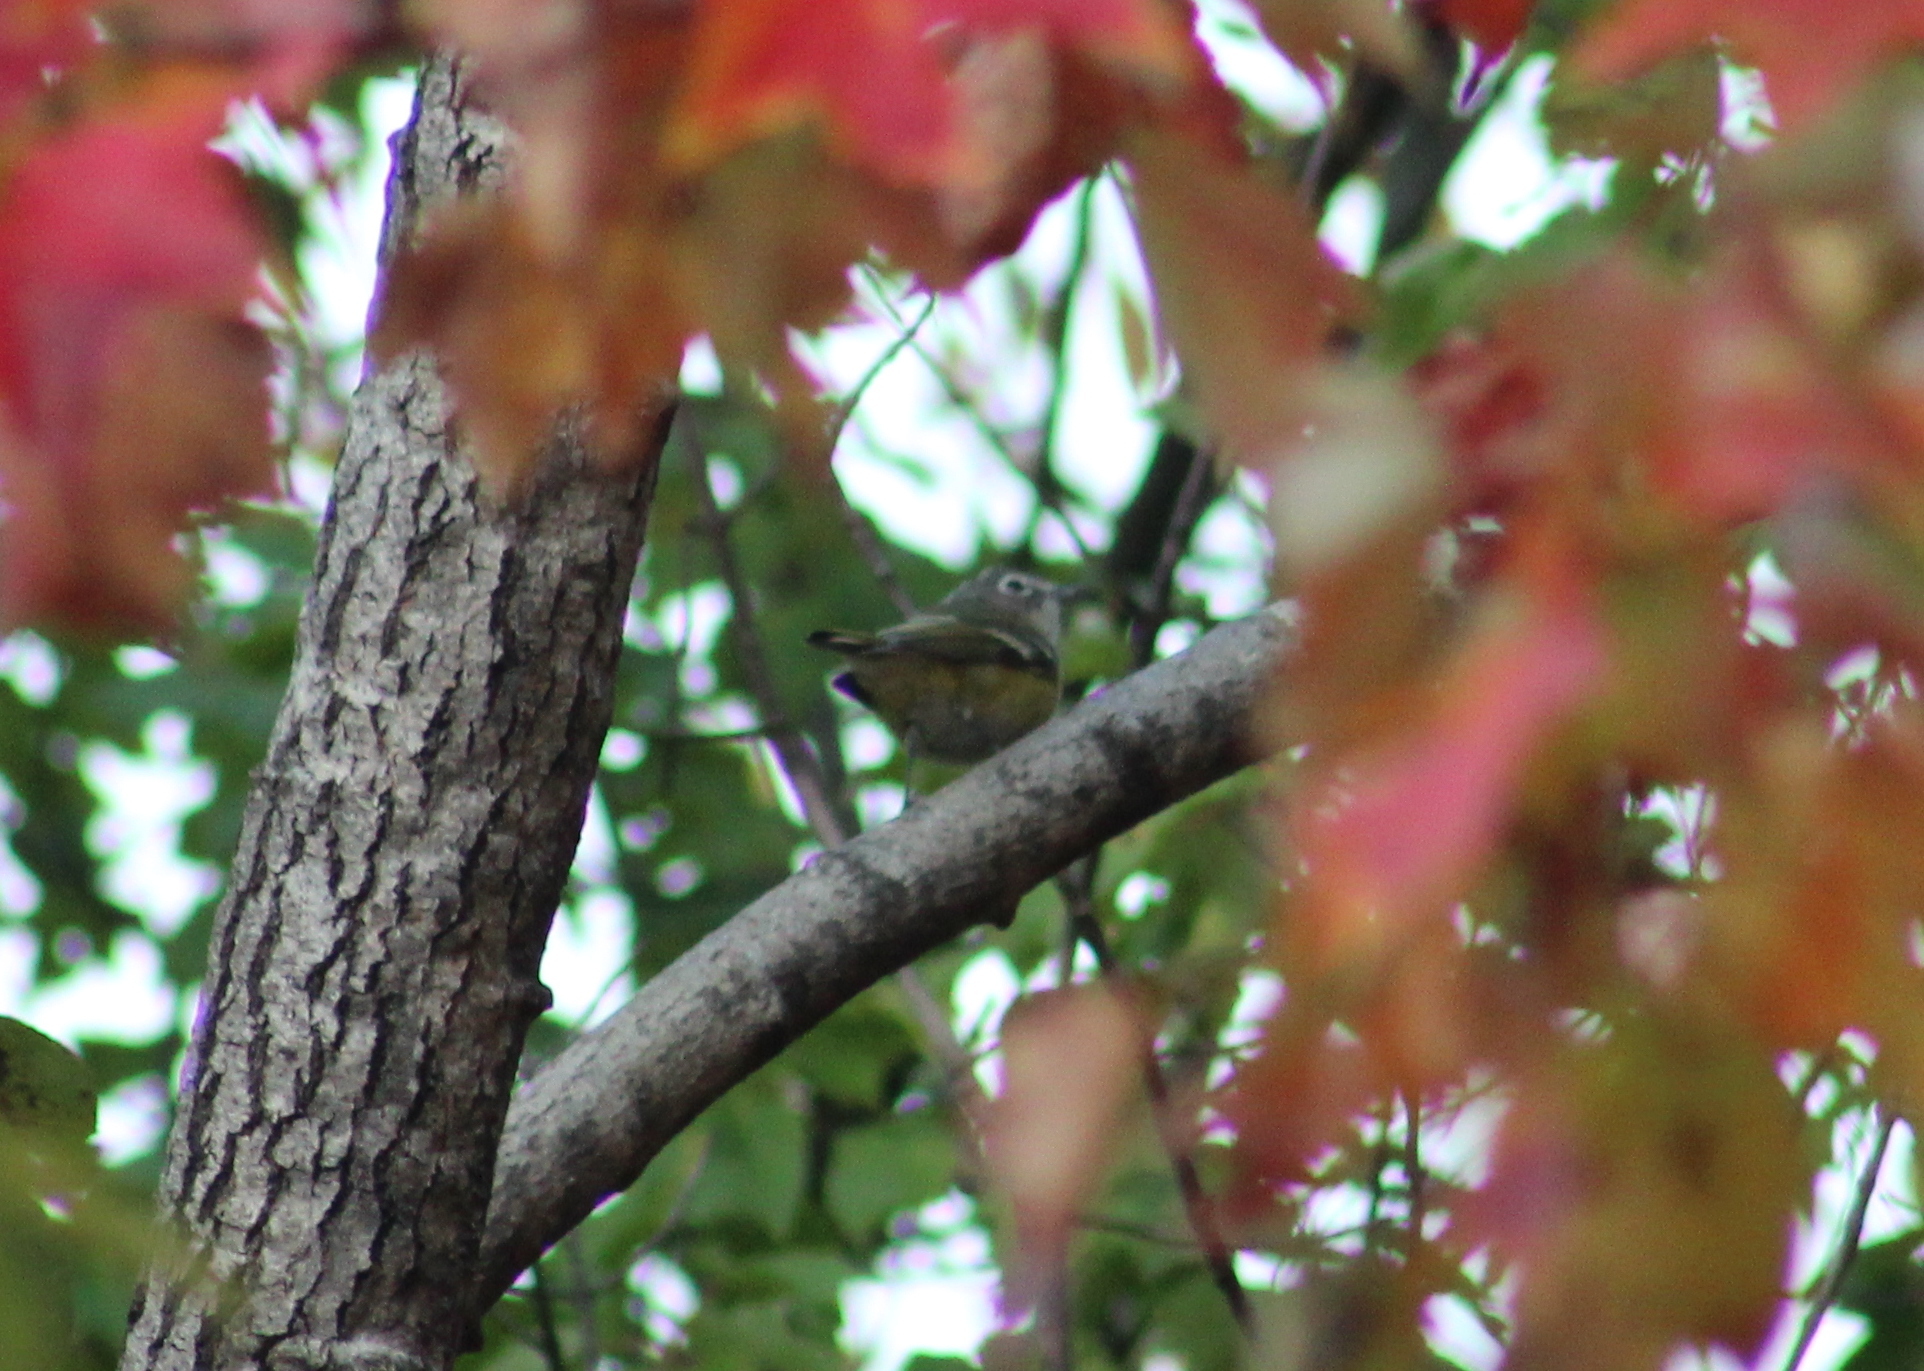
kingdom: Animalia
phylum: Chordata
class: Aves
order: Passeriformes
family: Vireonidae
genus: Vireo
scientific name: Vireo solitarius
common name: Blue-headed vireo
